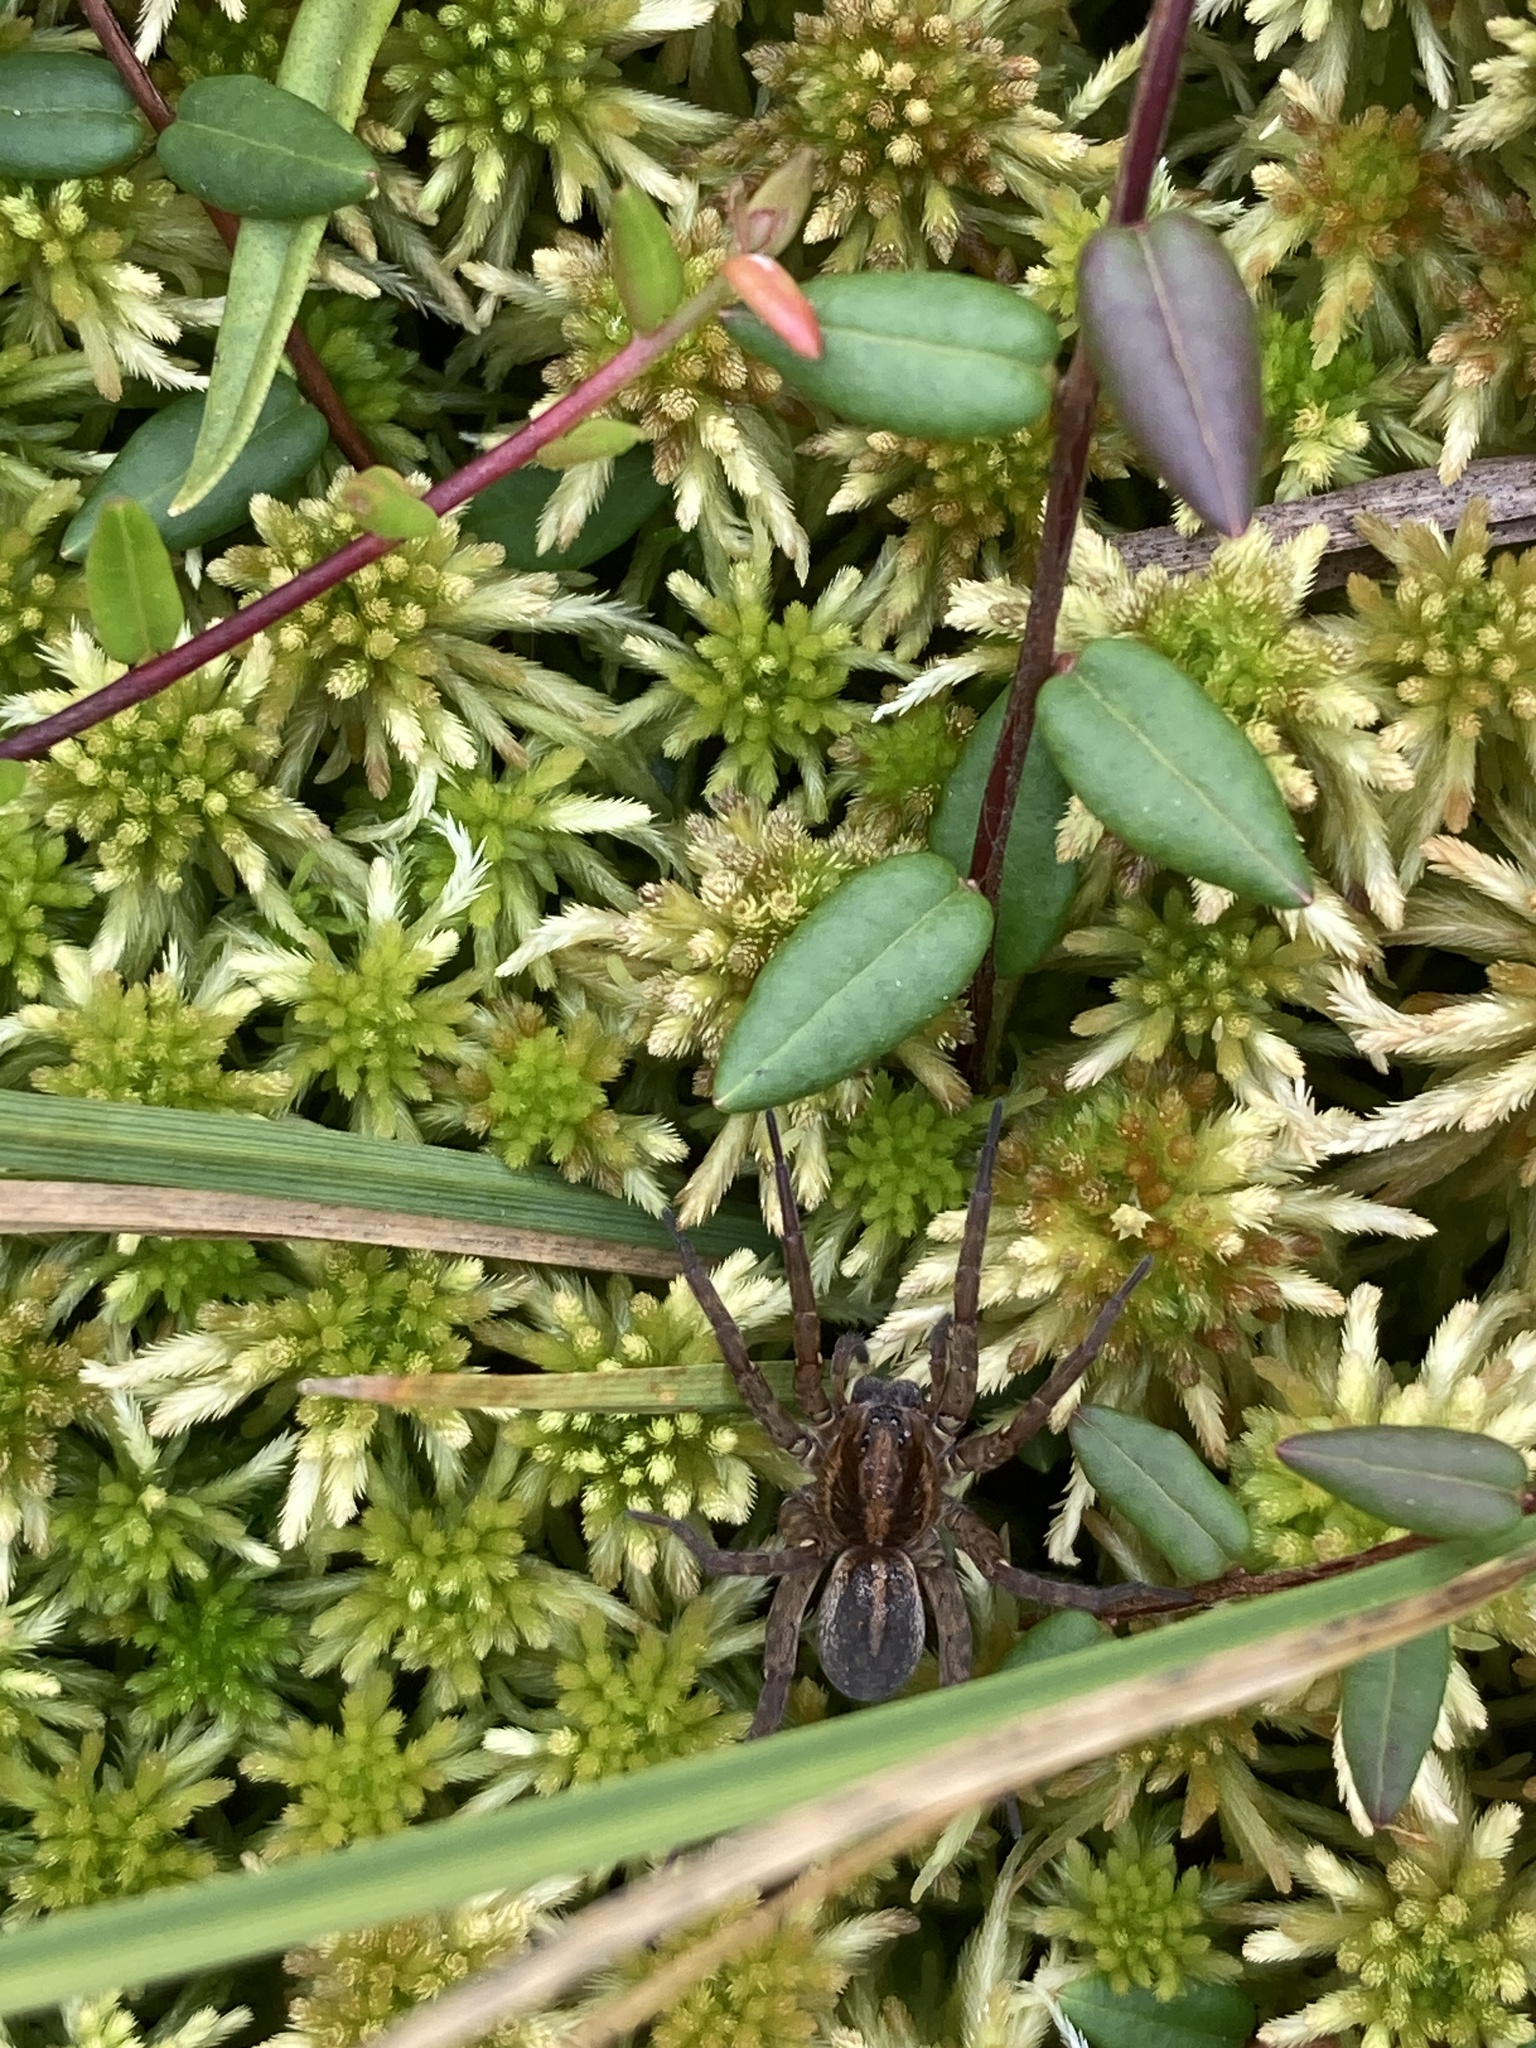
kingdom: Animalia
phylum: Arthropoda
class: Arachnida
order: Araneae
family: Lycosidae
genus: Trochosa
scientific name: Trochosa
